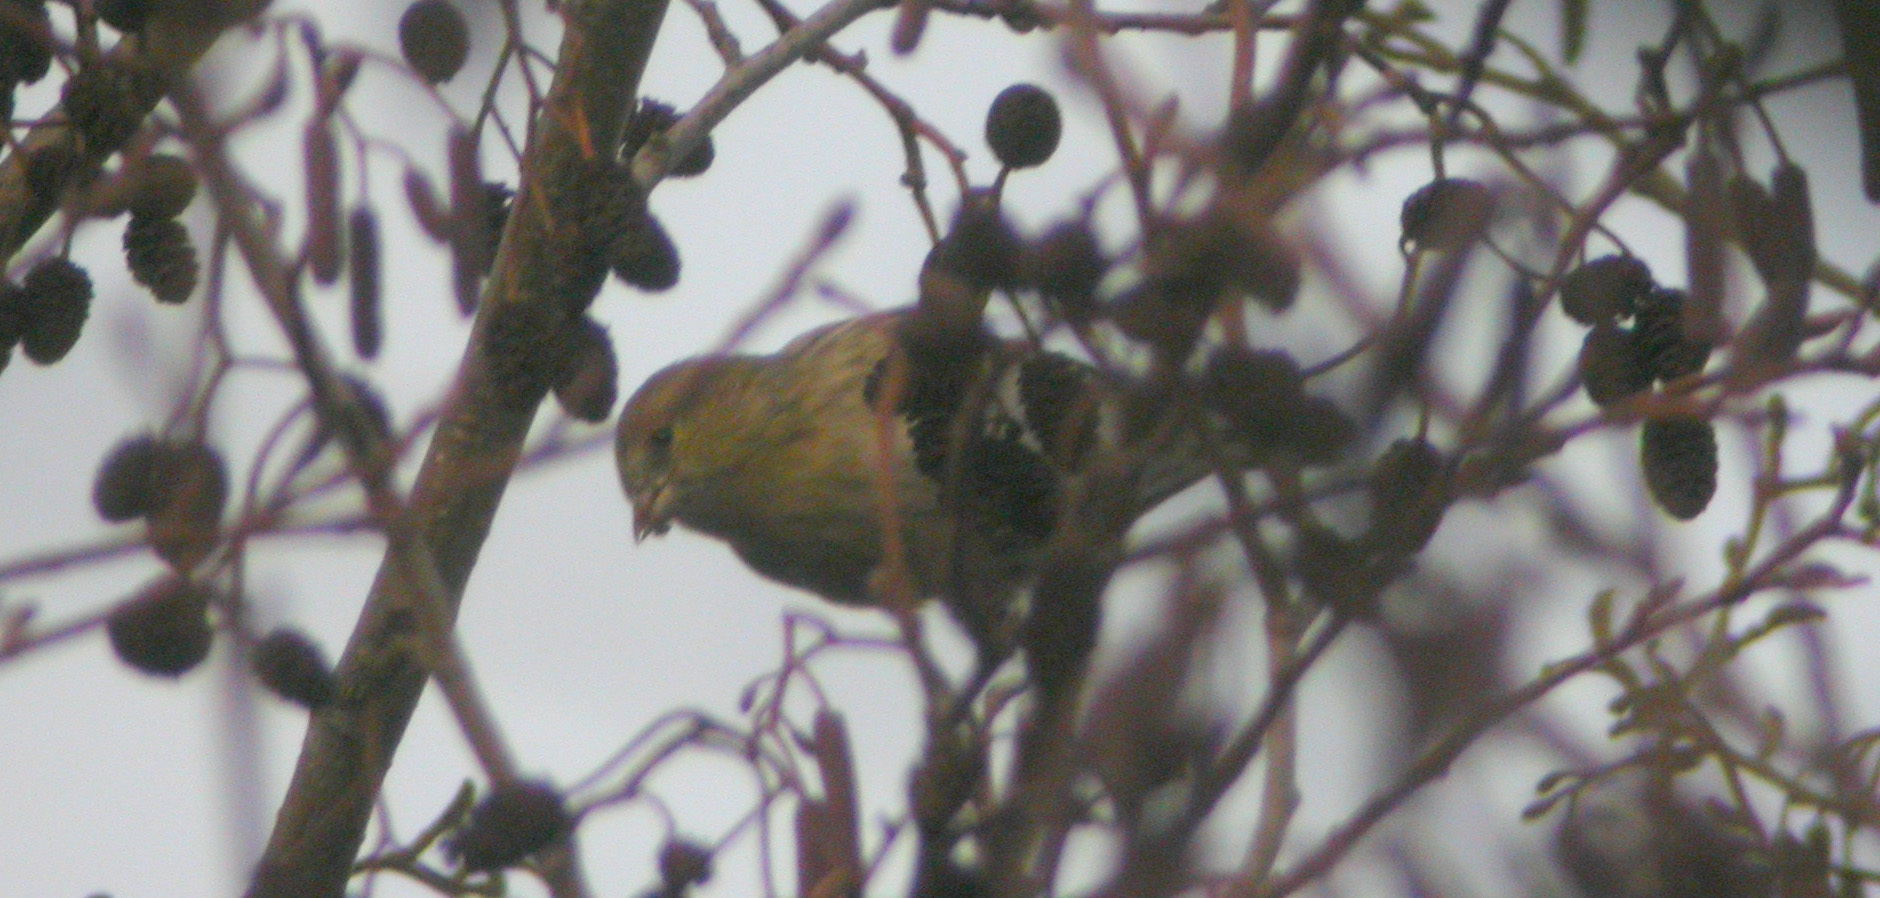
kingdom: Animalia
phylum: Chordata
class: Aves
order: Passeriformes
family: Fringillidae
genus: Spinus
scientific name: Spinus spinus
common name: Eurasian siskin
